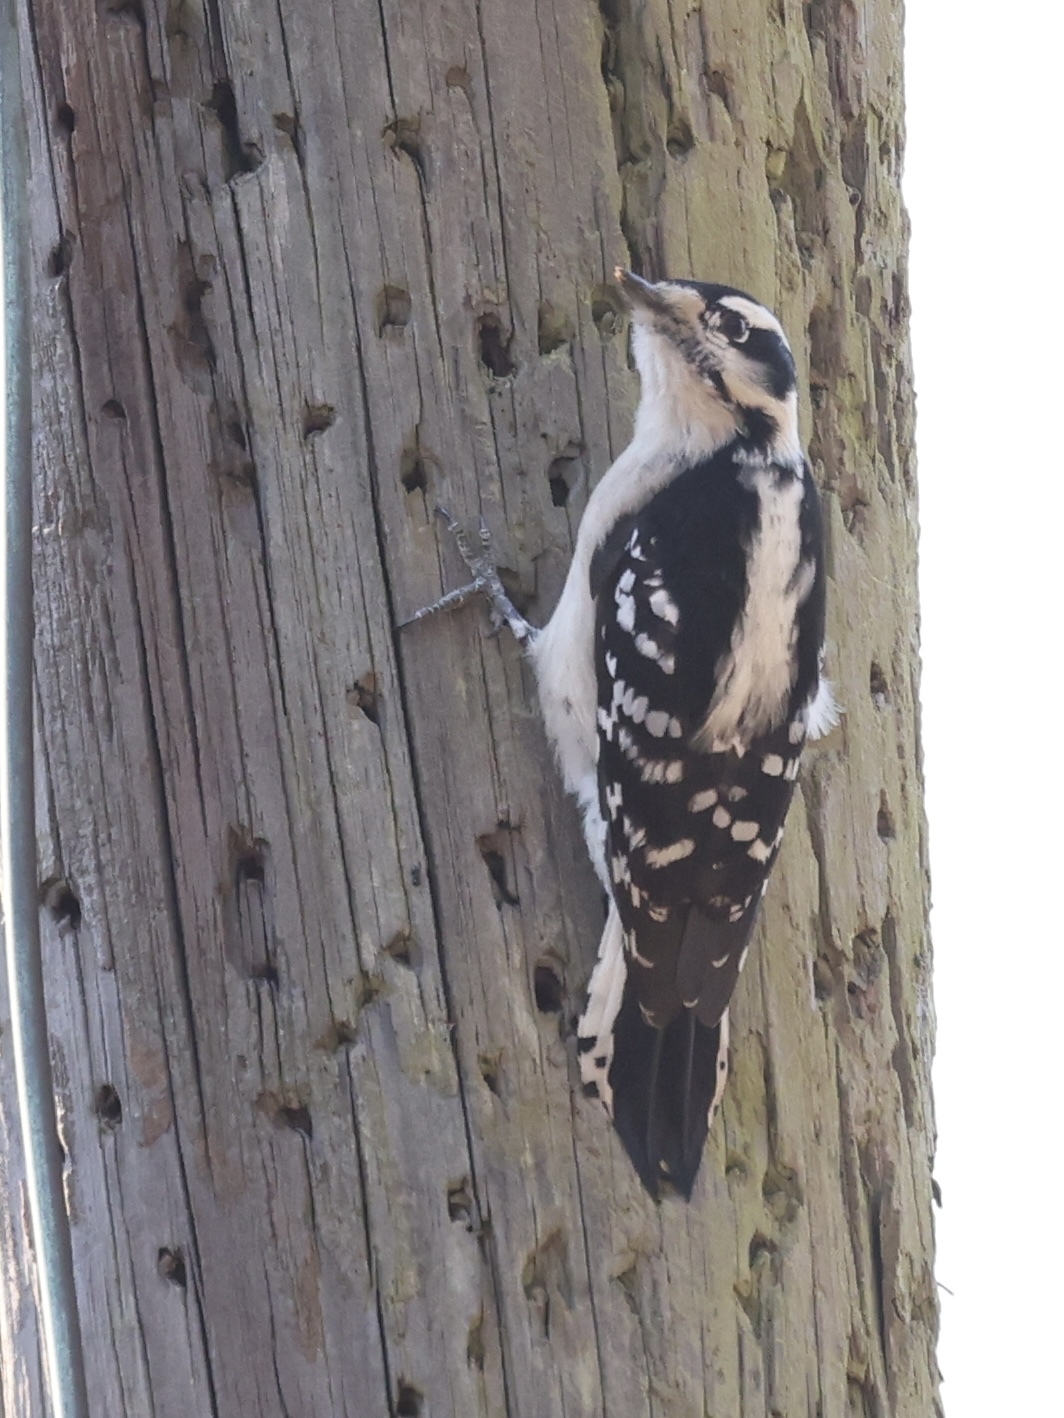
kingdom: Animalia
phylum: Chordata
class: Aves
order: Piciformes
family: Picidae
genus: Dryobates
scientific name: Dryobates pubescens
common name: Downy woodpecker
